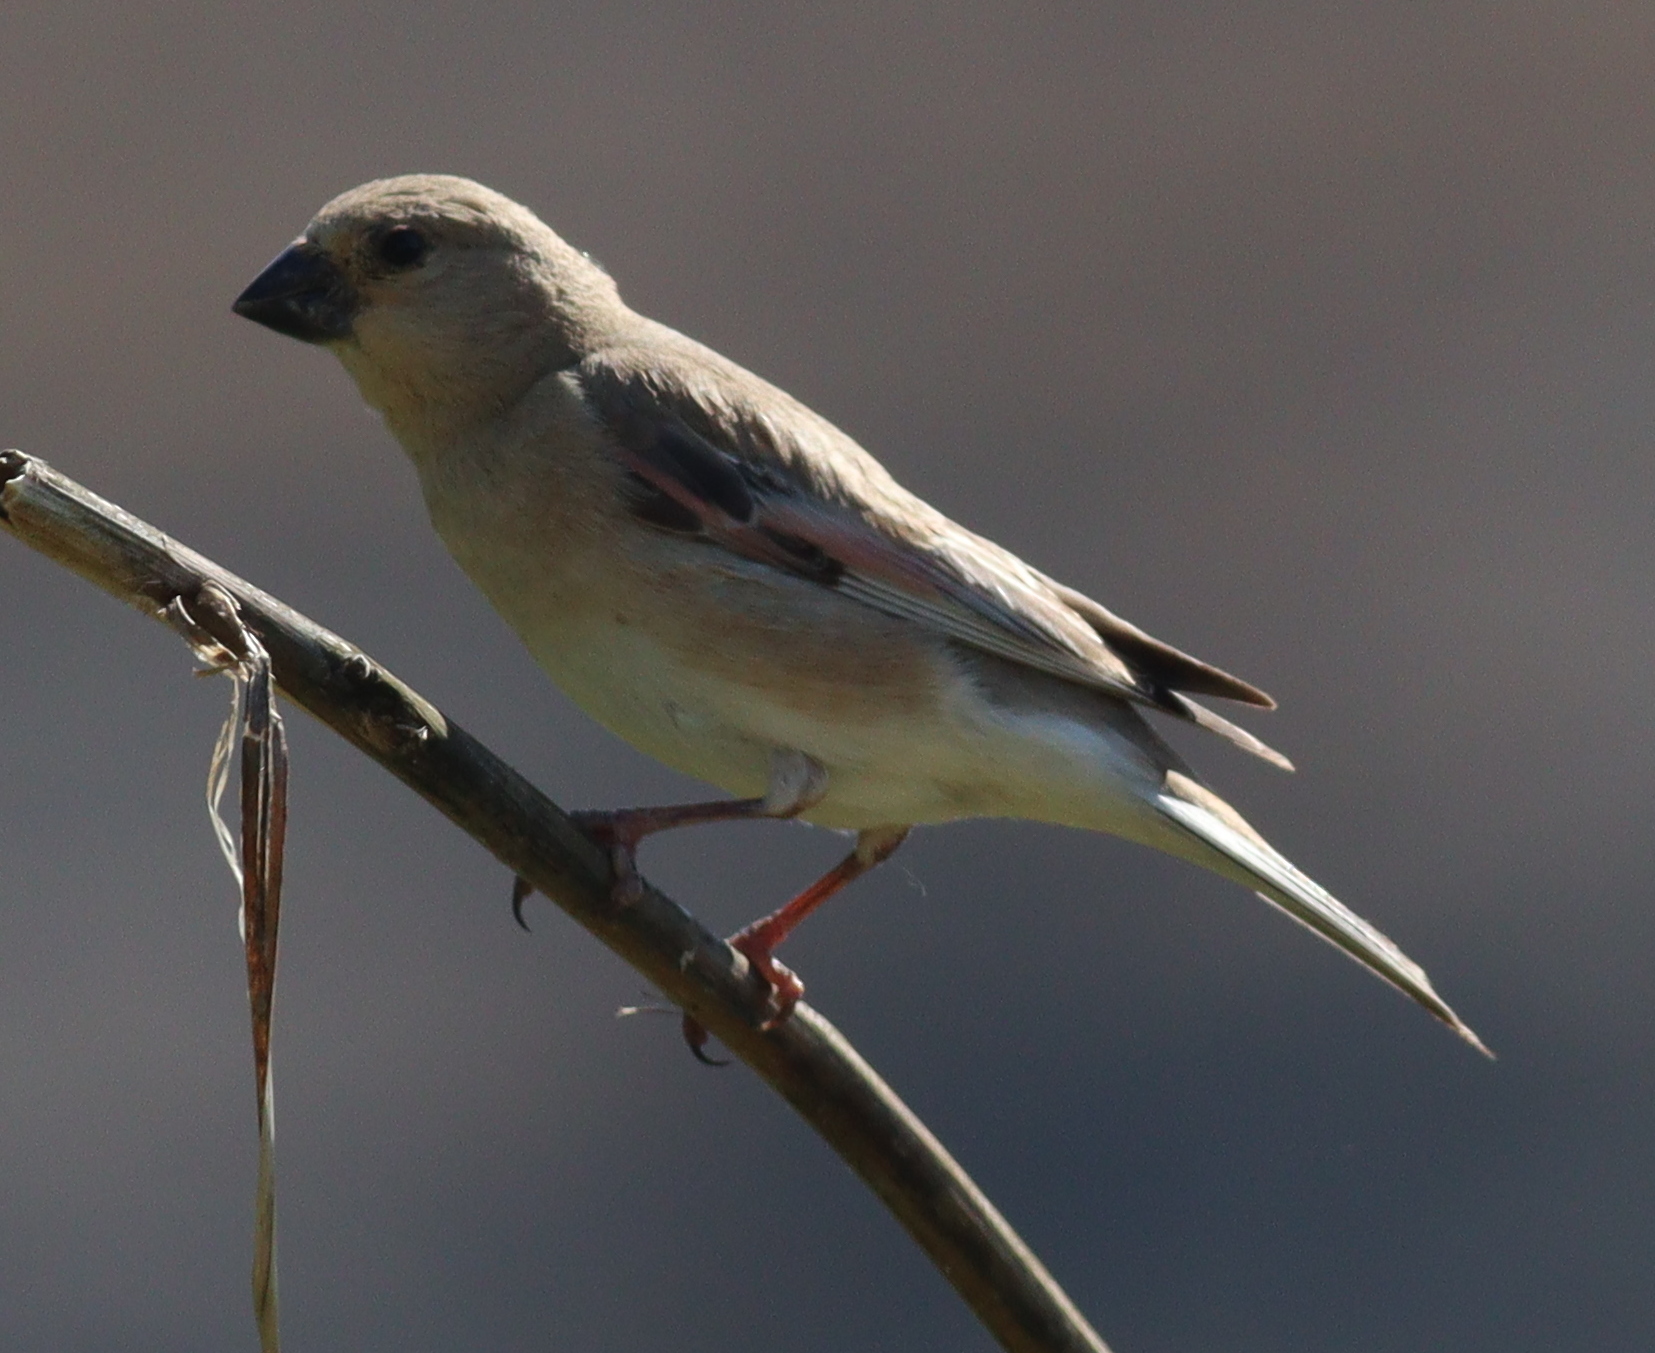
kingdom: Animalia
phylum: Chordata
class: Aves
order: Passeriformes
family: Fringillidae
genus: Rhodospiza
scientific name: Rhodospiza obsoleta
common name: Desert finch
